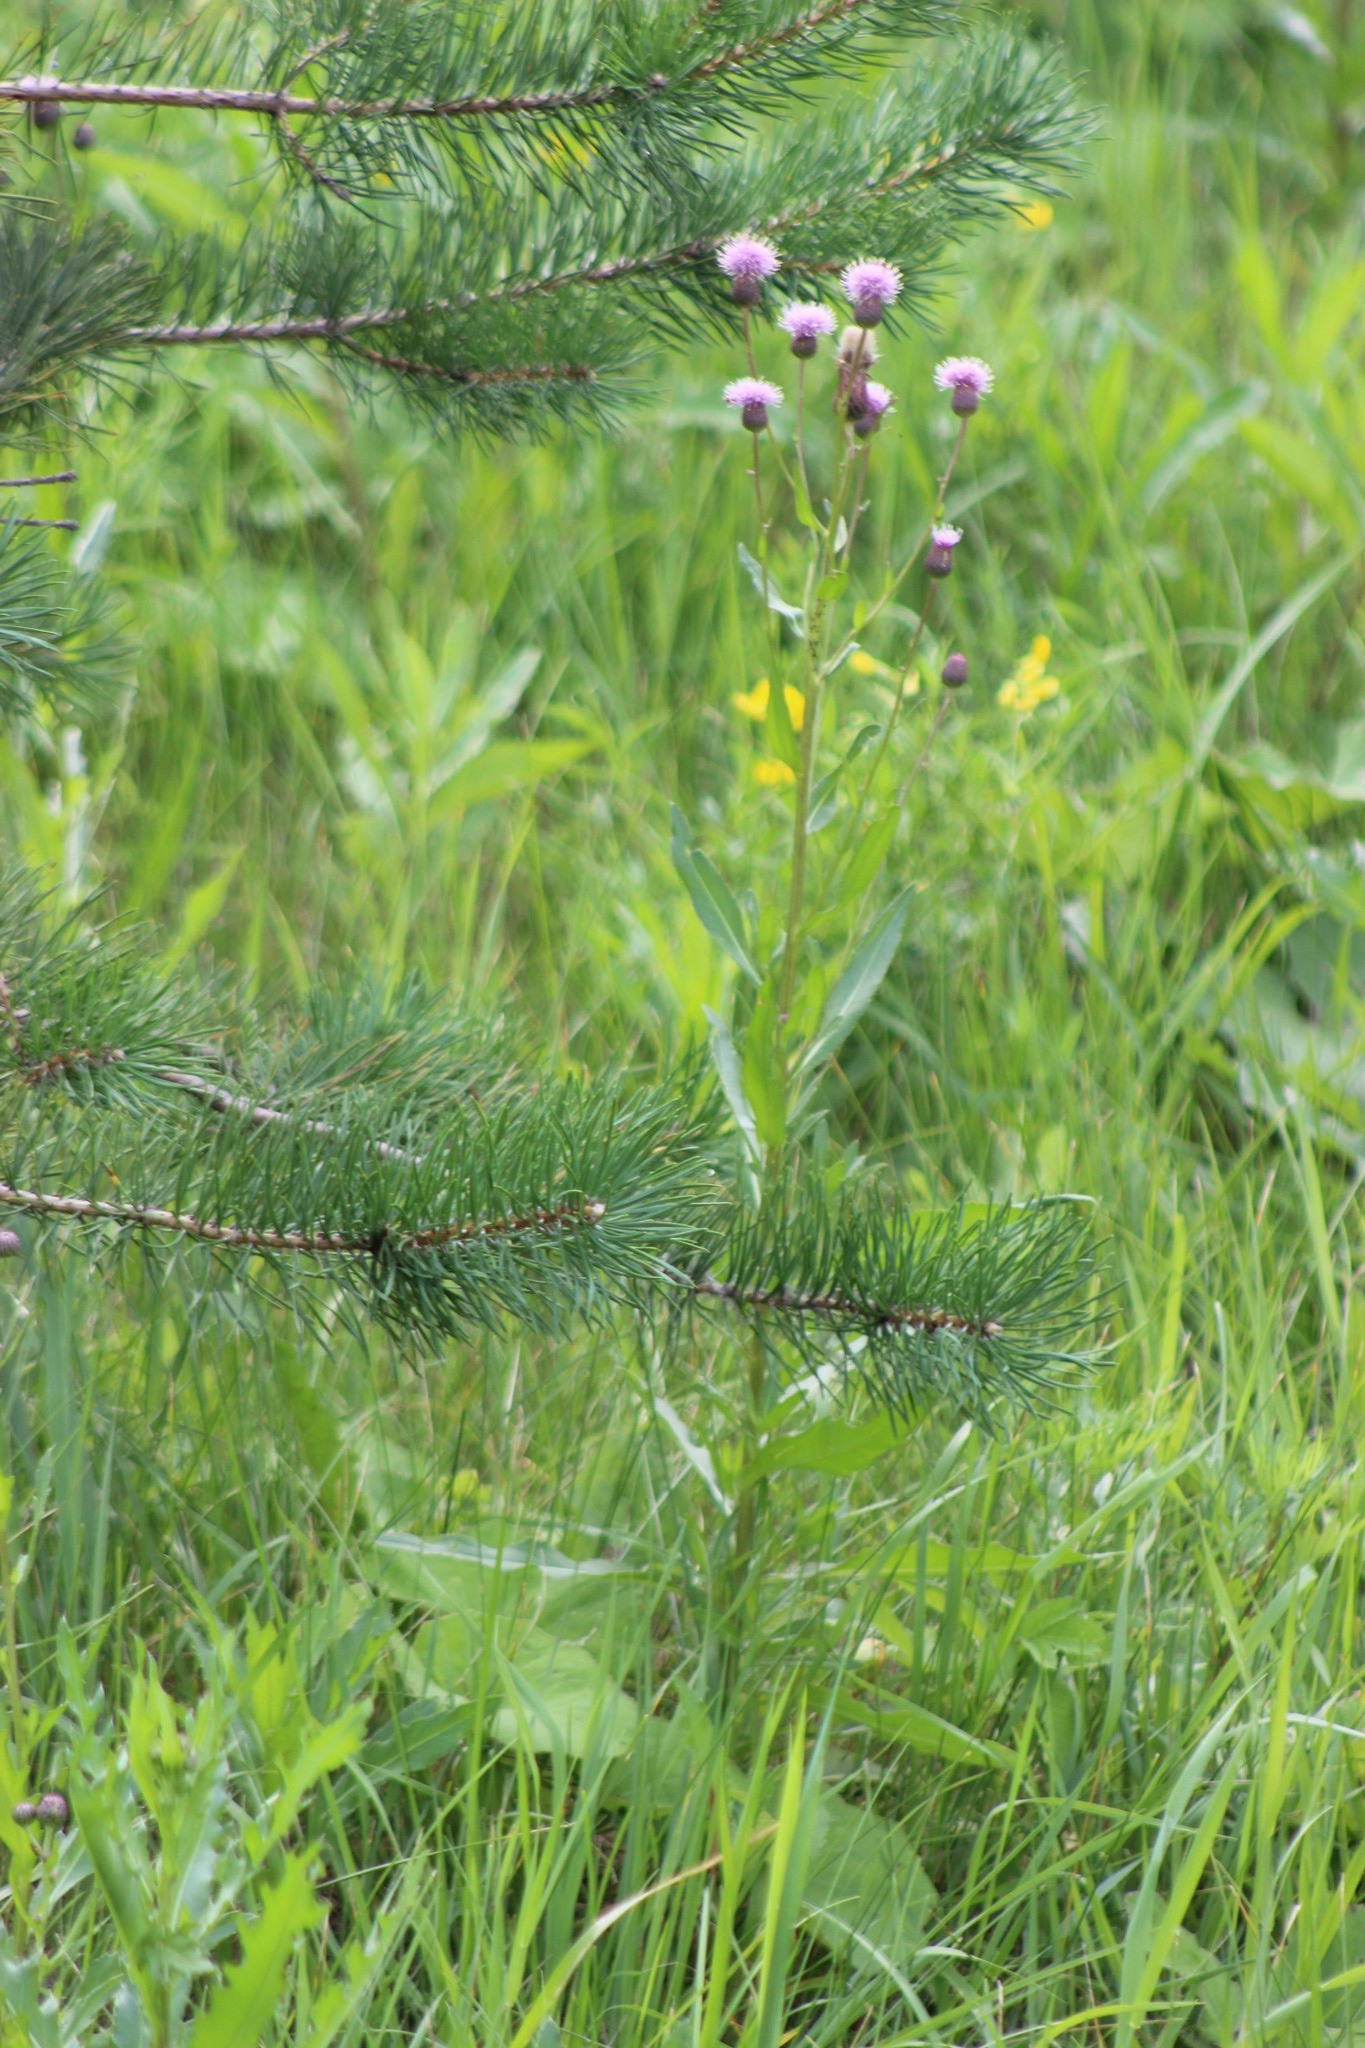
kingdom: Plantae
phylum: Tracheophyta
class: Magnoliopsida
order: Asterales
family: Asteraceae
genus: Cirsium
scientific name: Cirsium arvense
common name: Creeping thistle
